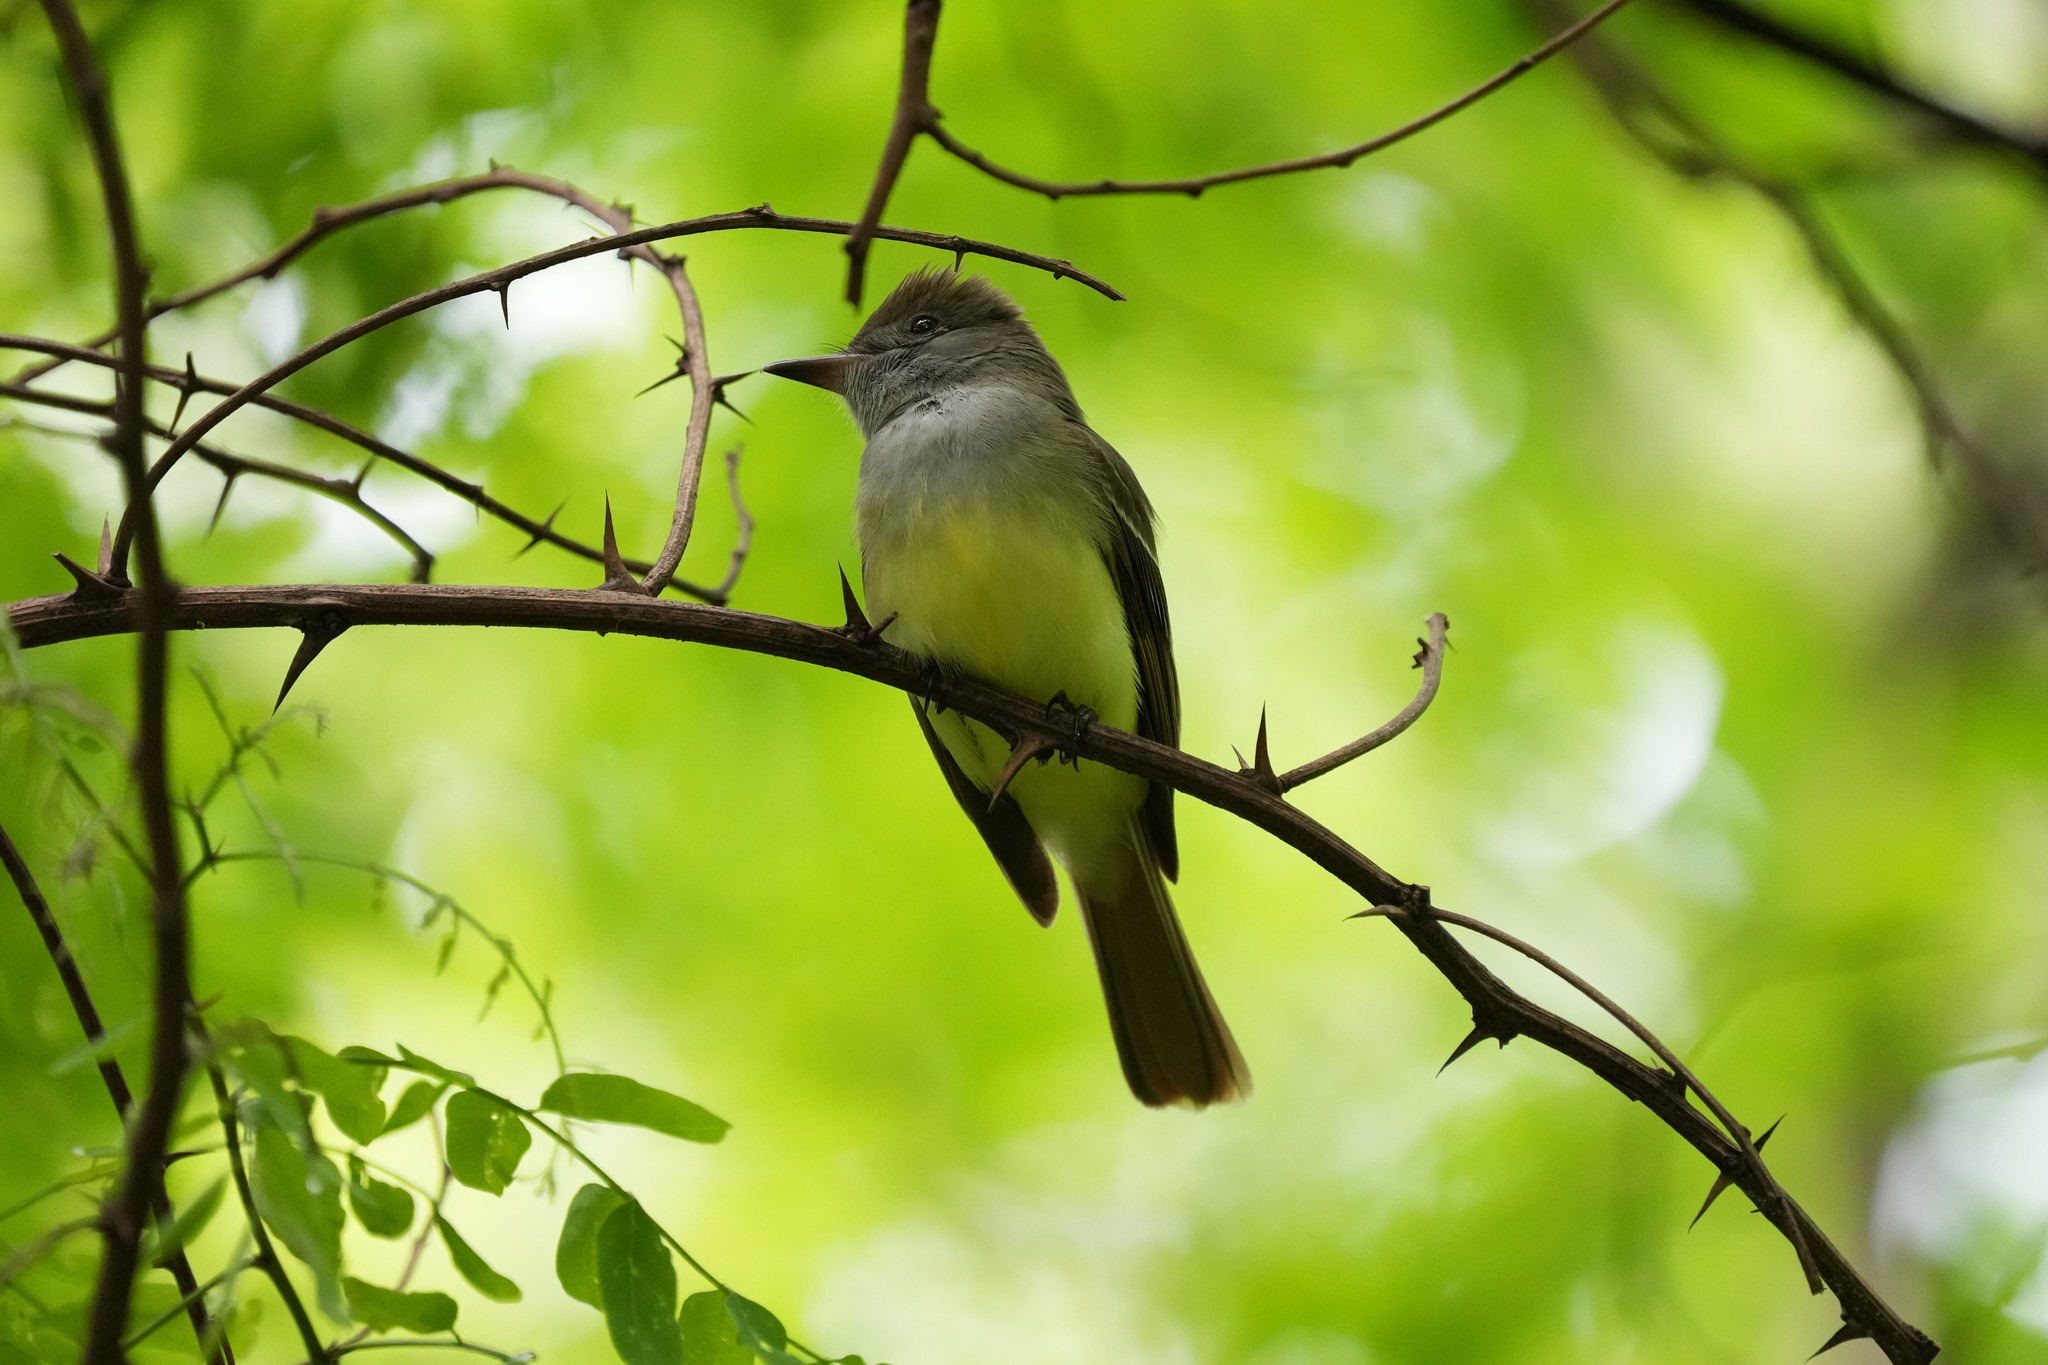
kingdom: Animalia
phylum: Chordata
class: Aves
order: Passeriformes
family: Tyrannidae
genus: Myiarchus
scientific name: Myiarchus crinitus
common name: Great crested flycatcher
